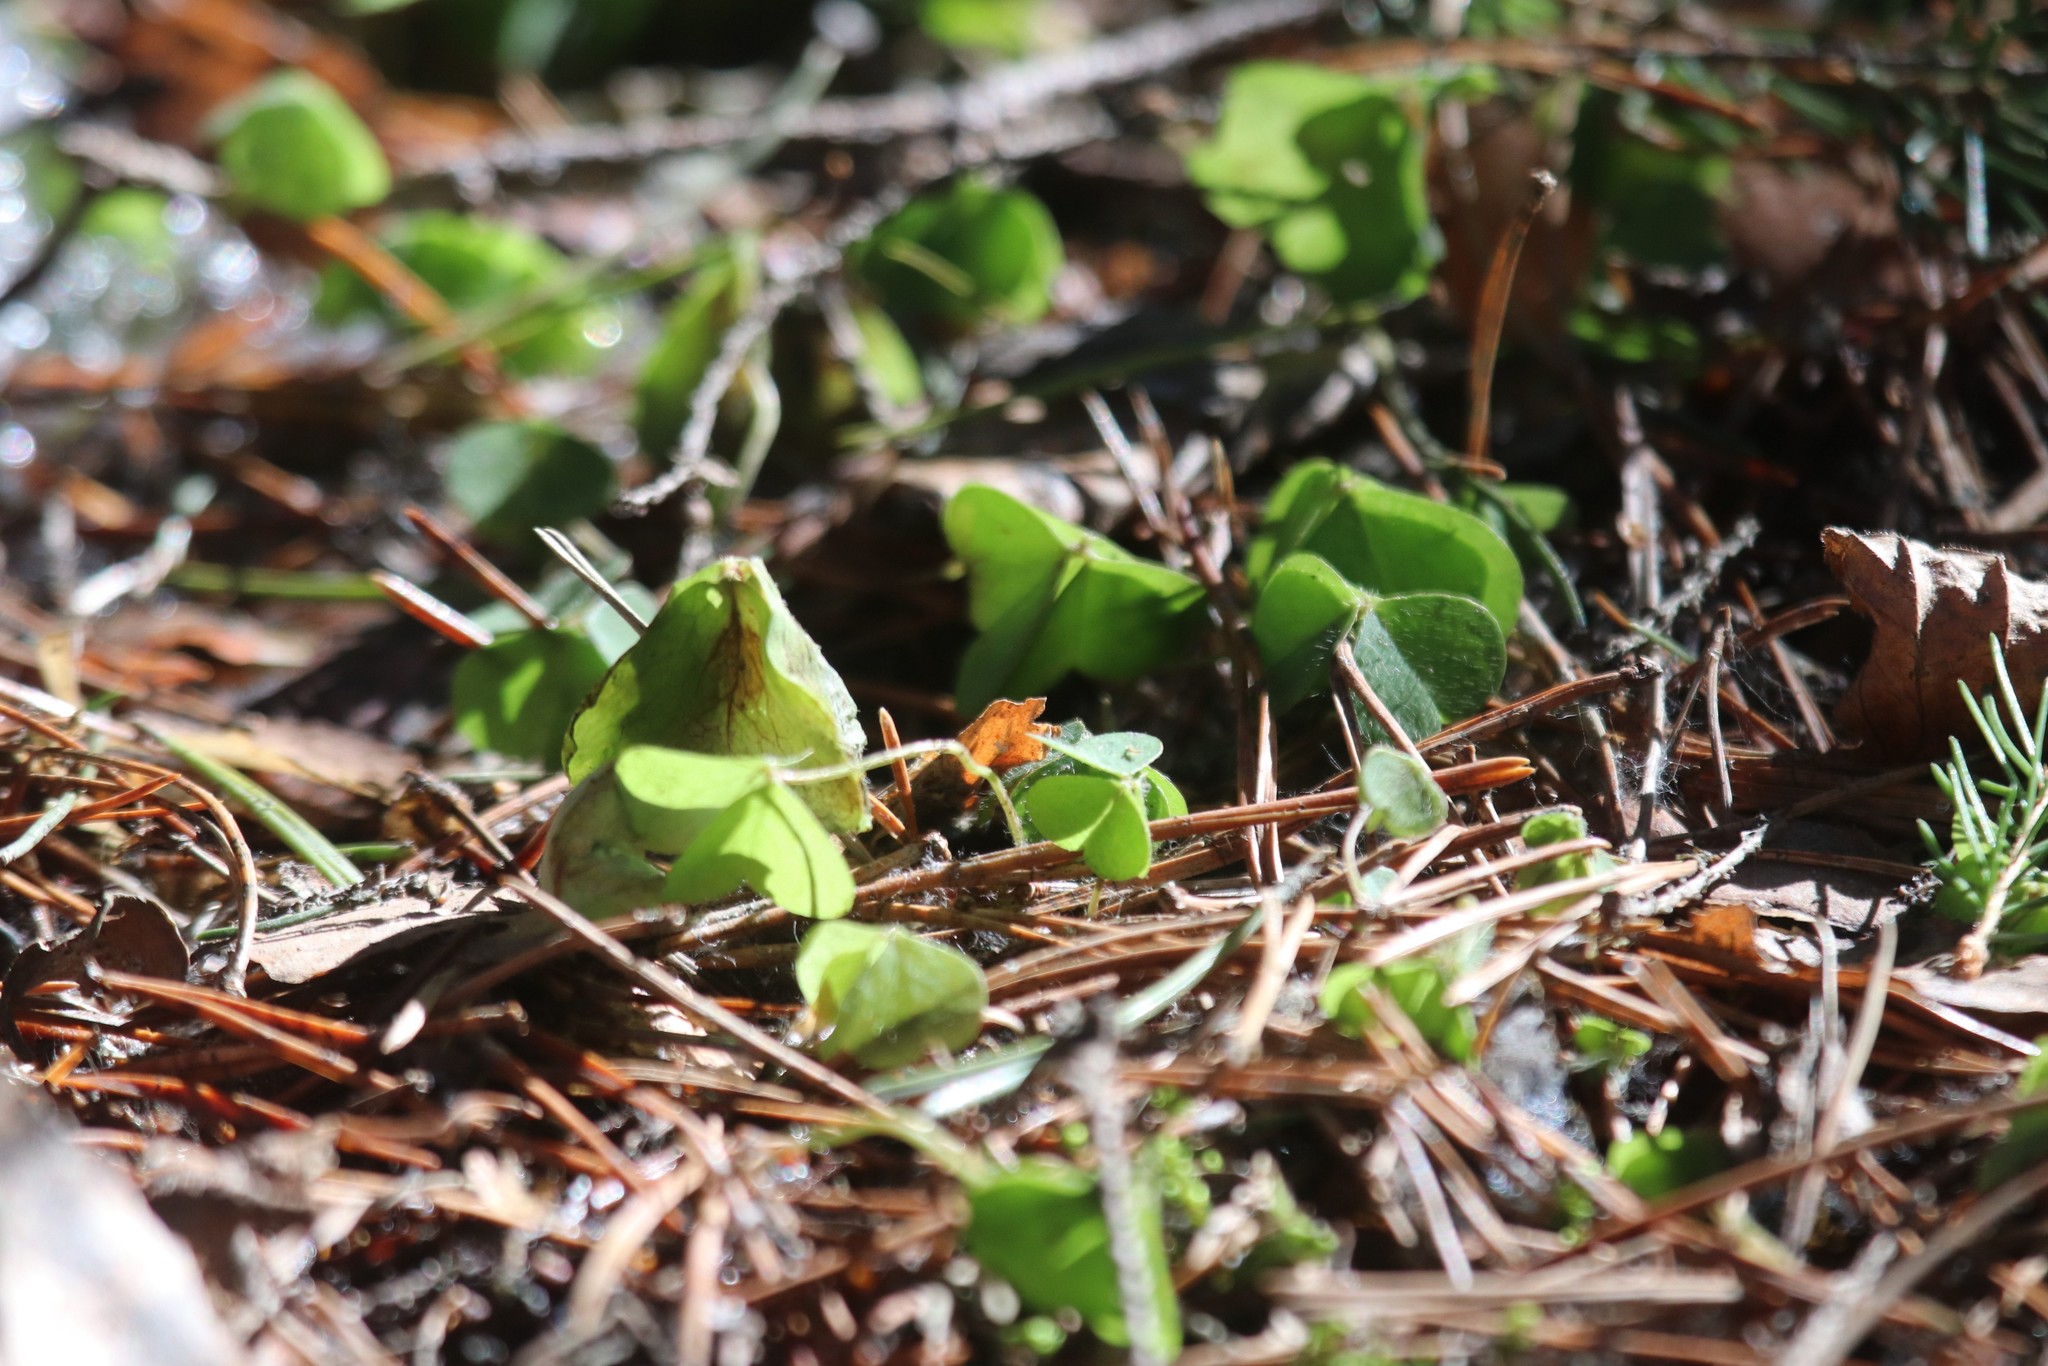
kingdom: Plantae
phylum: Tracheophyta
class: Magnoliopsida
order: Oxalidales
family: Oxalidaceae
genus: Oxalis
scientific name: Oxalis acetosella
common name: Wood-sorrel
